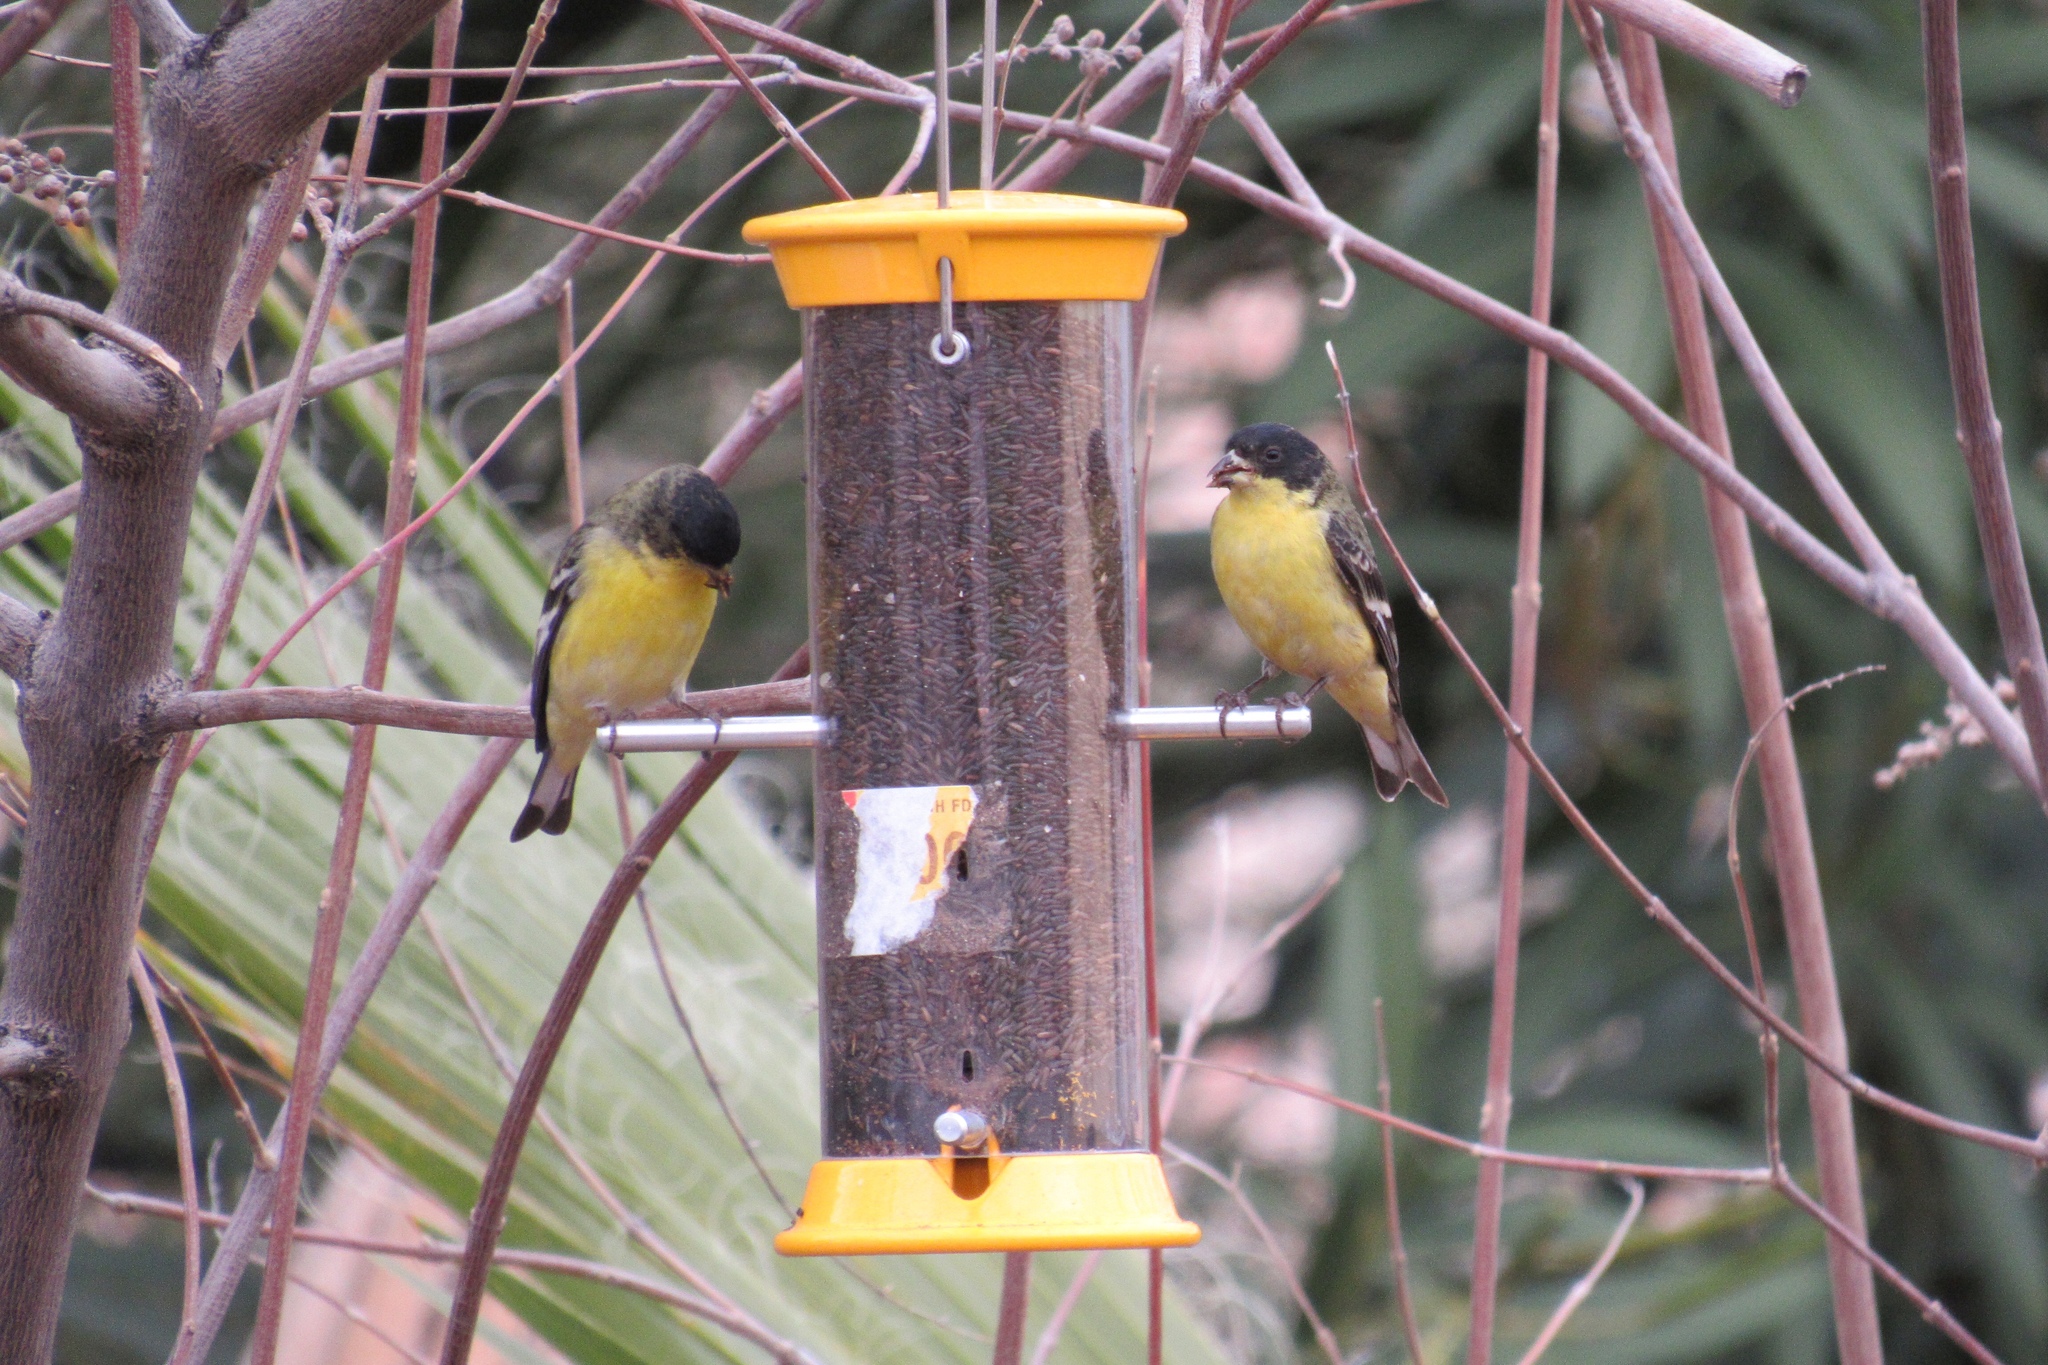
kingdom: Animalia
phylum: Chordata
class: Aves
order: Passeriformes
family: Fringillidae
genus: Spinus
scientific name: Spinus psaltria
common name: Lesser goldfinch
